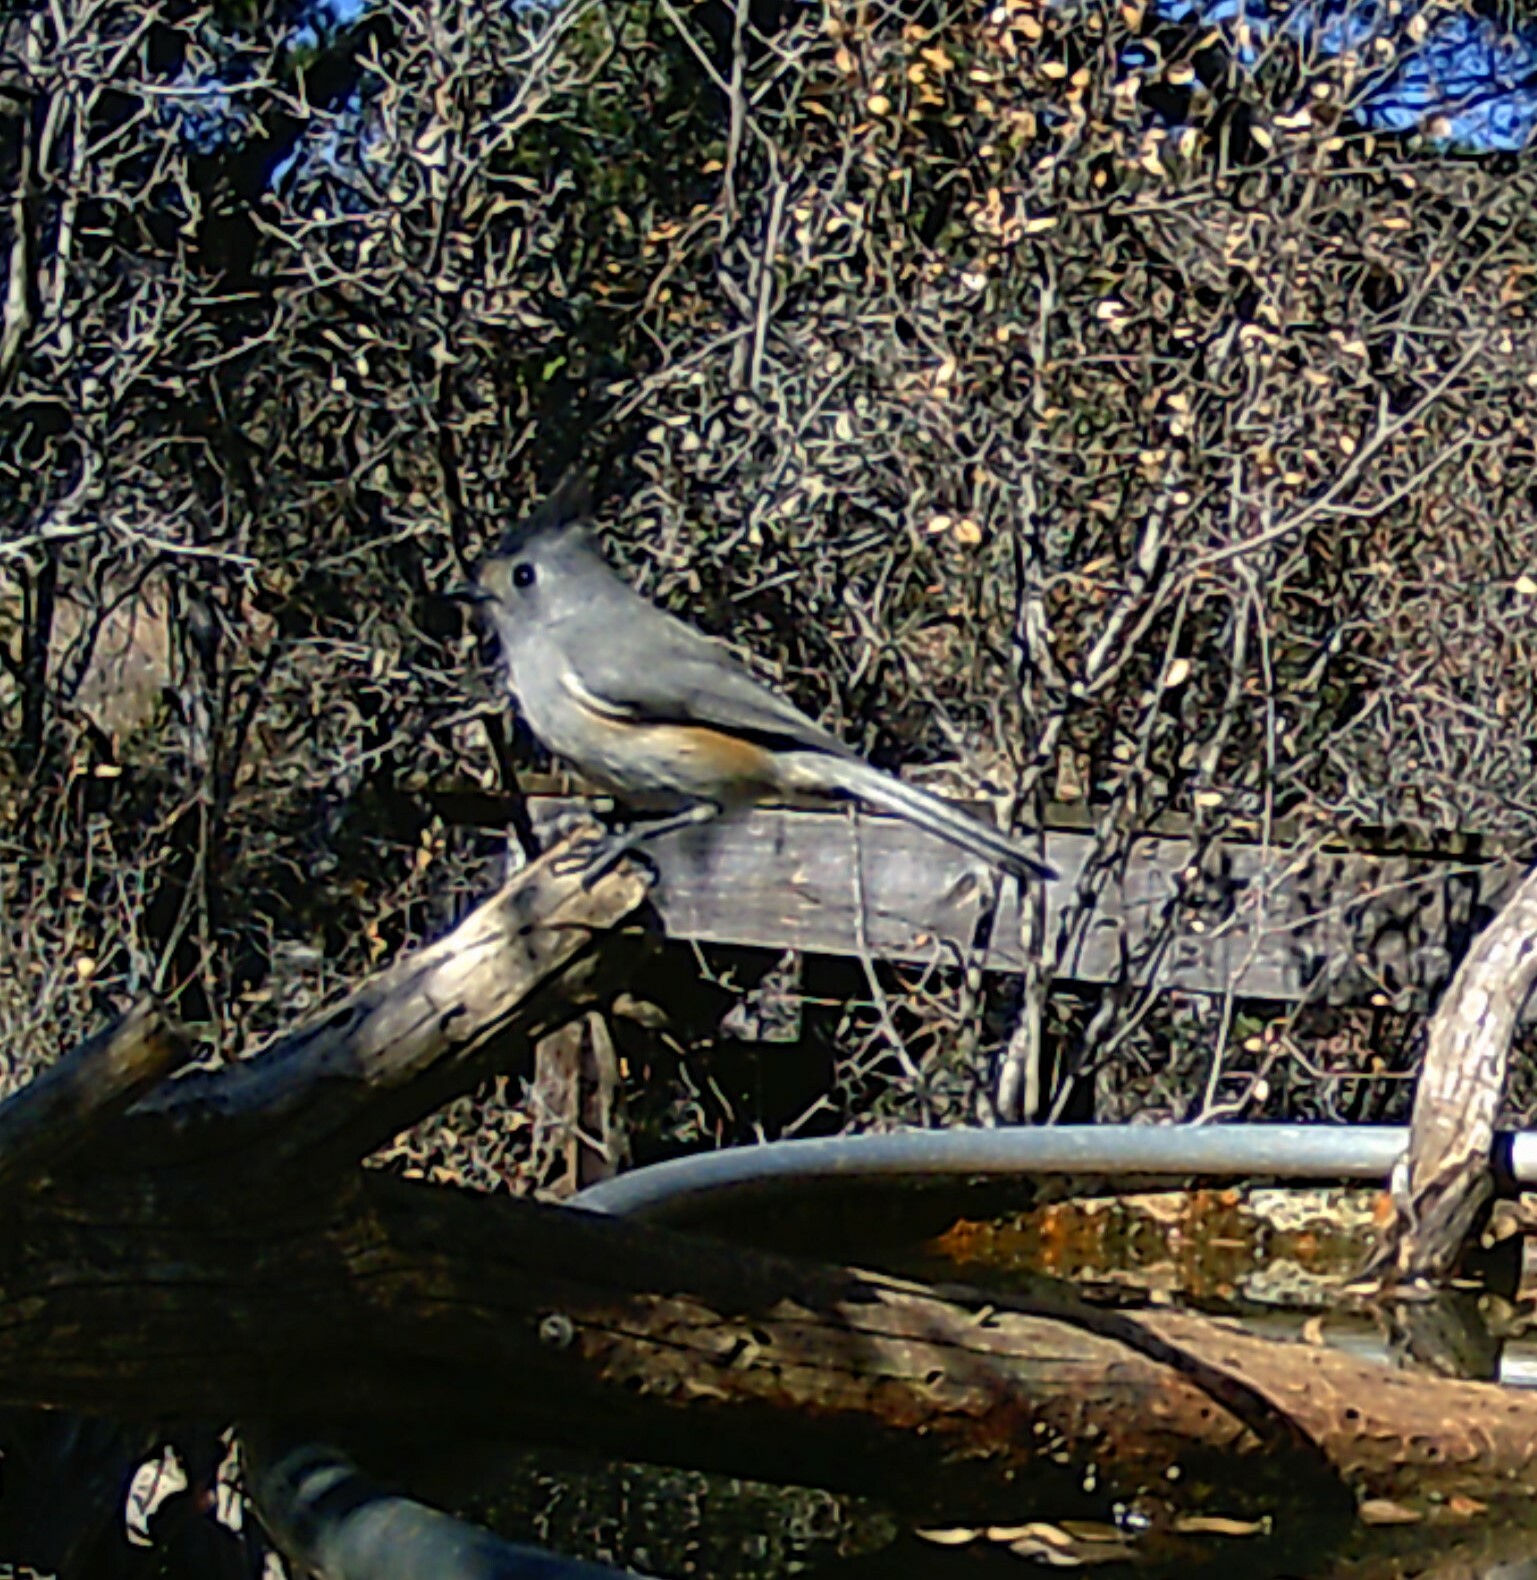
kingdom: Animalia
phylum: Chordata
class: Aves
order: Passeriformes
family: Paridae
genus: Baeolophus
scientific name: Baeolophus atricristatus
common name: Black-crested titmouse
